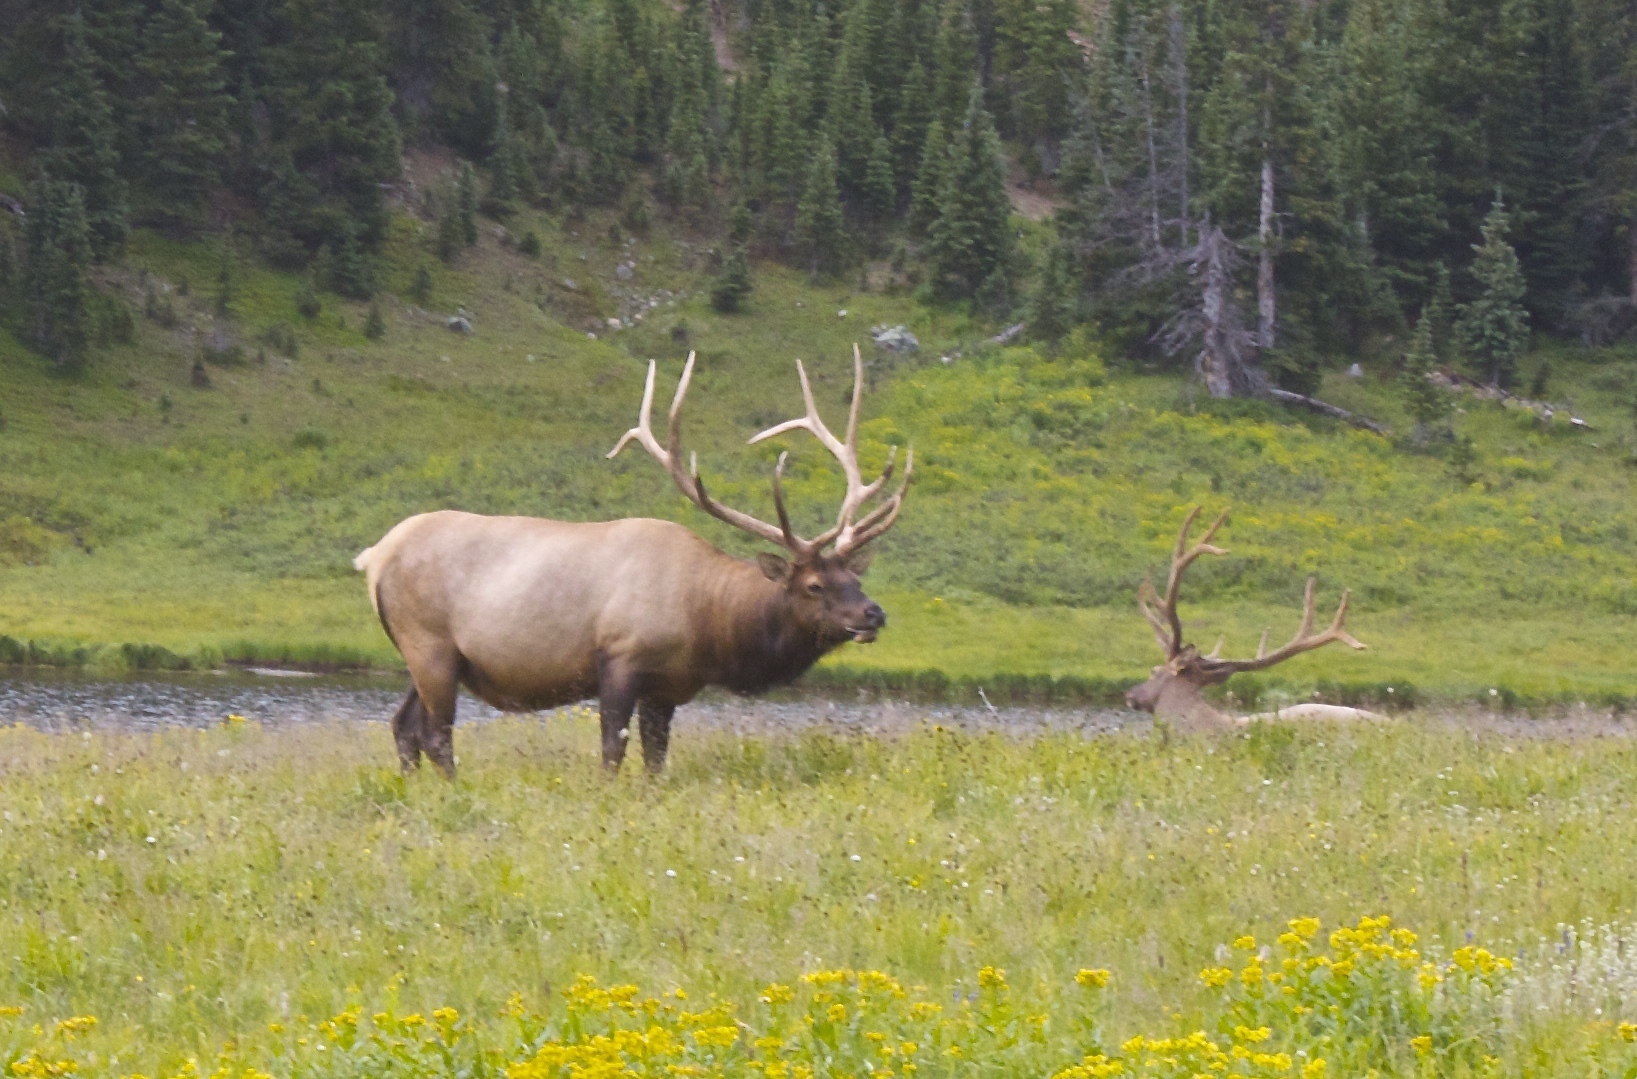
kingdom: Animalia
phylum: Chordata
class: Mammalia
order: Artiodactyla
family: Cervidae
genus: Cervus
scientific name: Cervus elaphus
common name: Red deer
